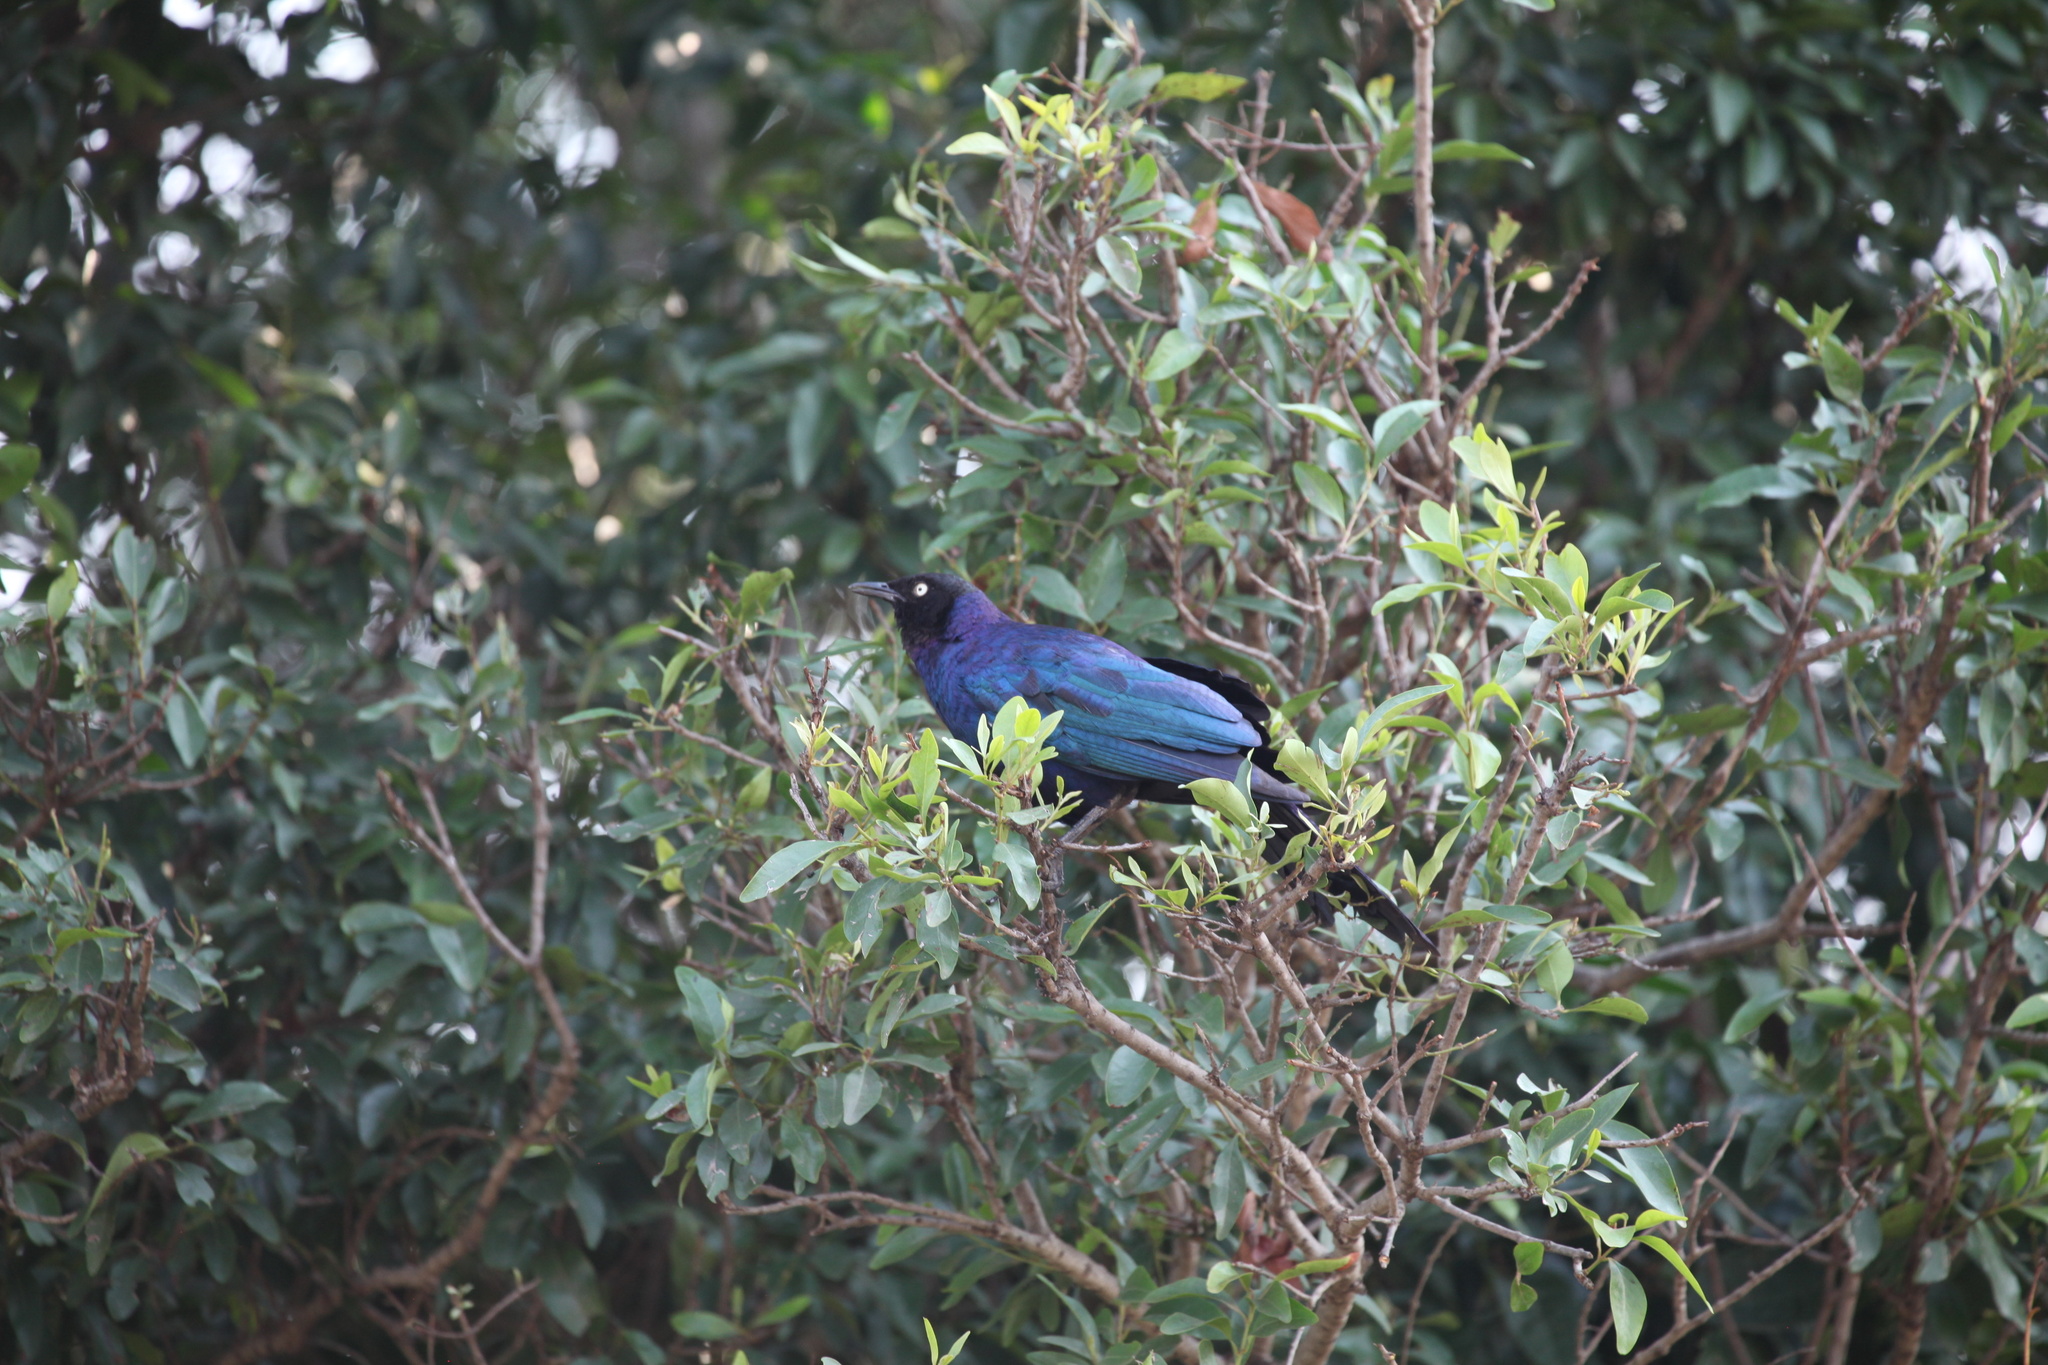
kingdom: Animalia
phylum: Chordata
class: Aves
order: Passeriformes
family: Sturnidae
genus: Lamprotornis
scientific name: Lamprotornis purpuroptera
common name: Rüppell's starling
